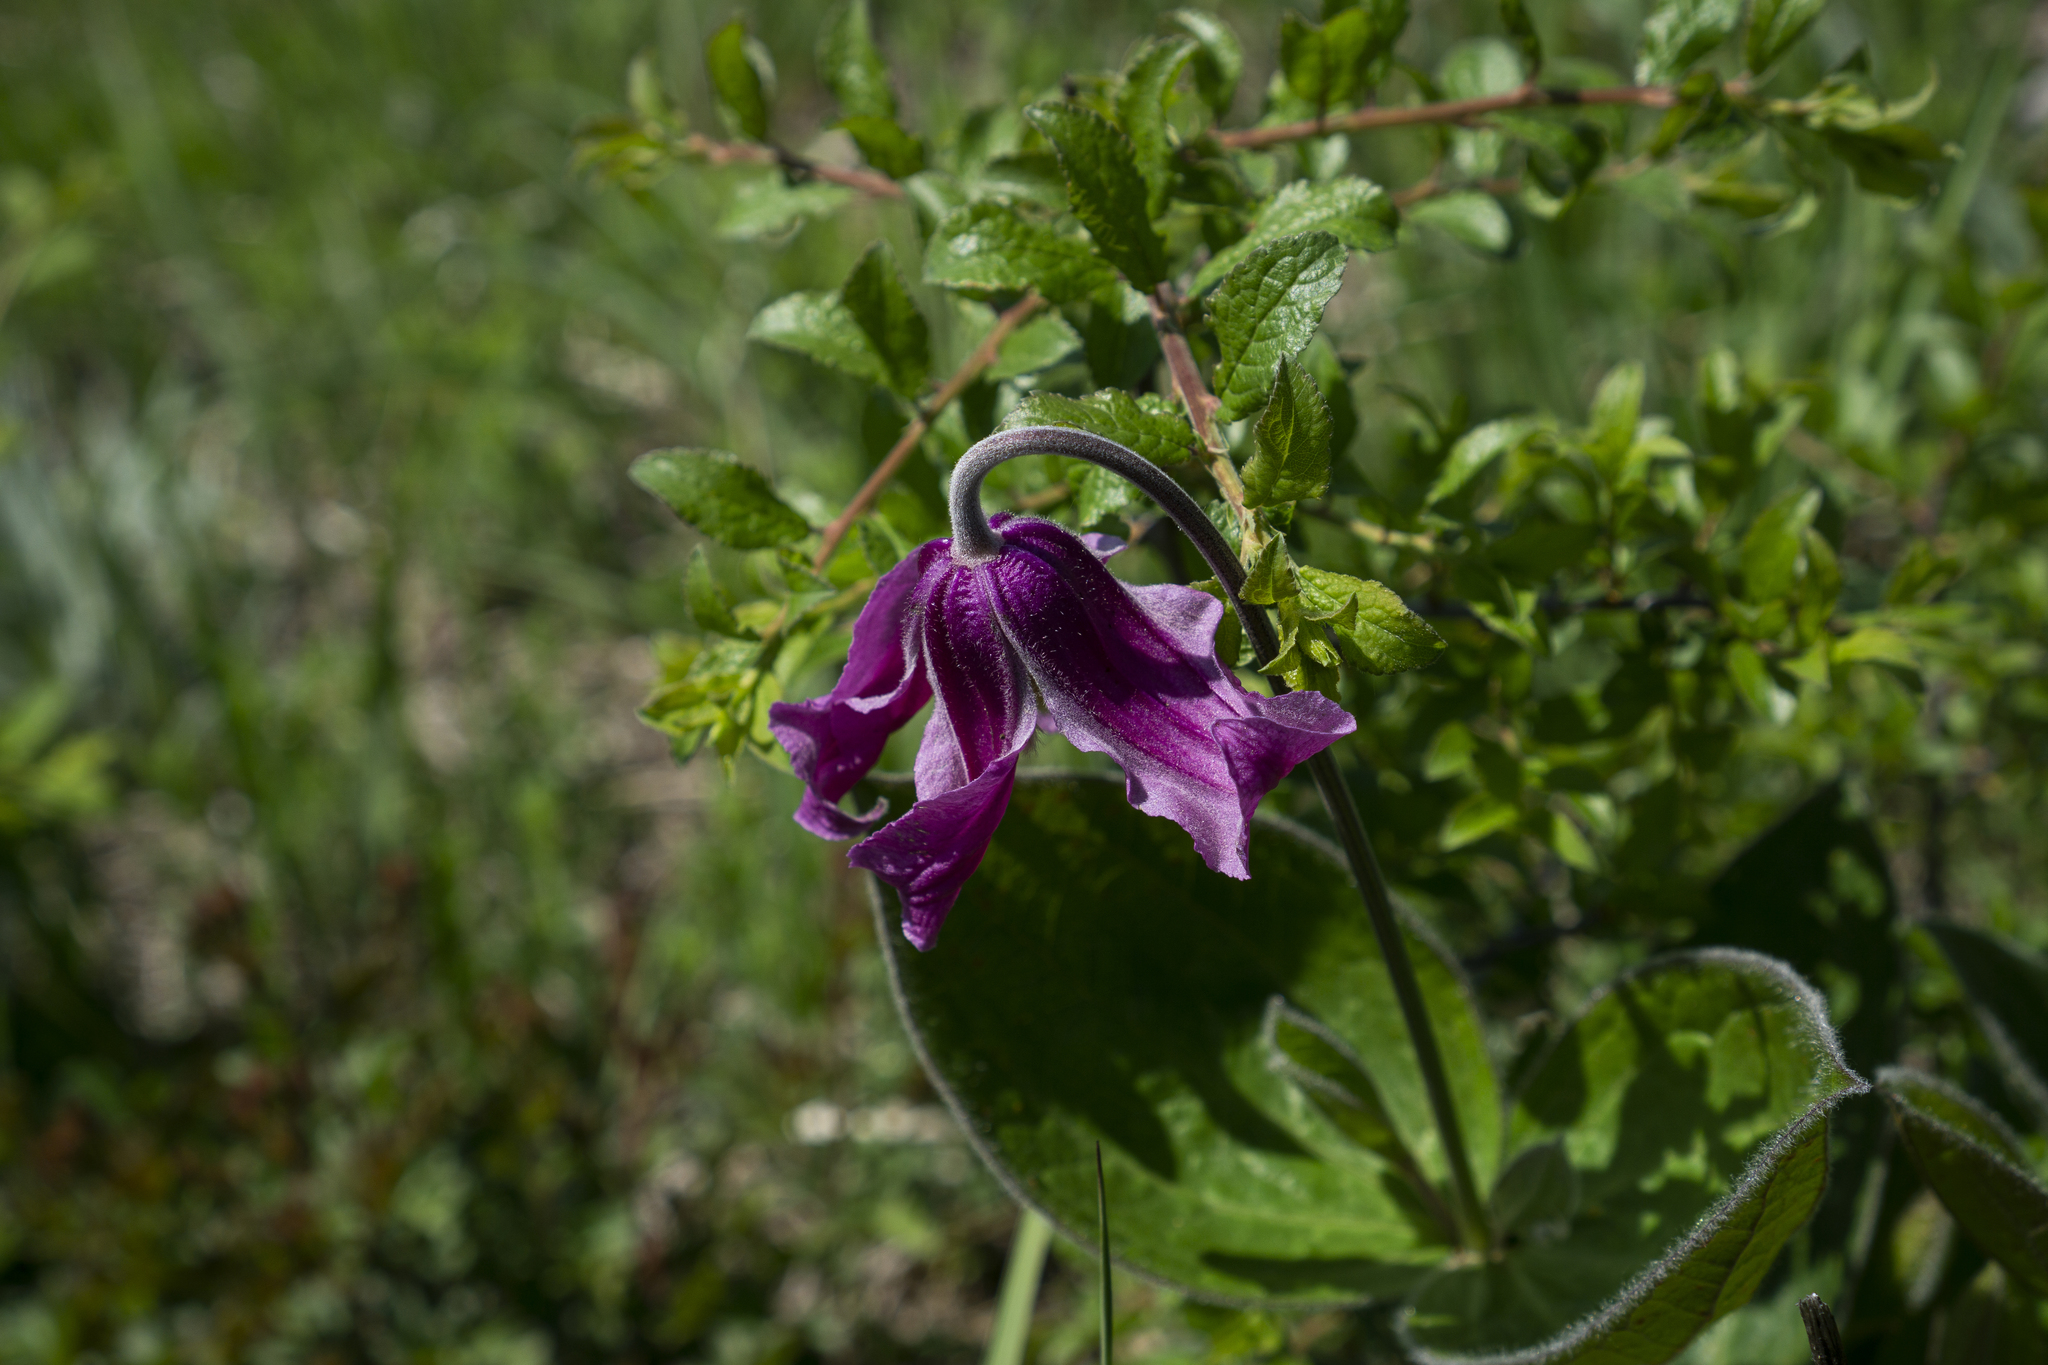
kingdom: Plantae
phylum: Tracheophyta
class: Magnoliopsida
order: Ranunculales
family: Ranunculaceae
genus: Clematis
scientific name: Clematis integrifolia
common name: Solitary clematis
